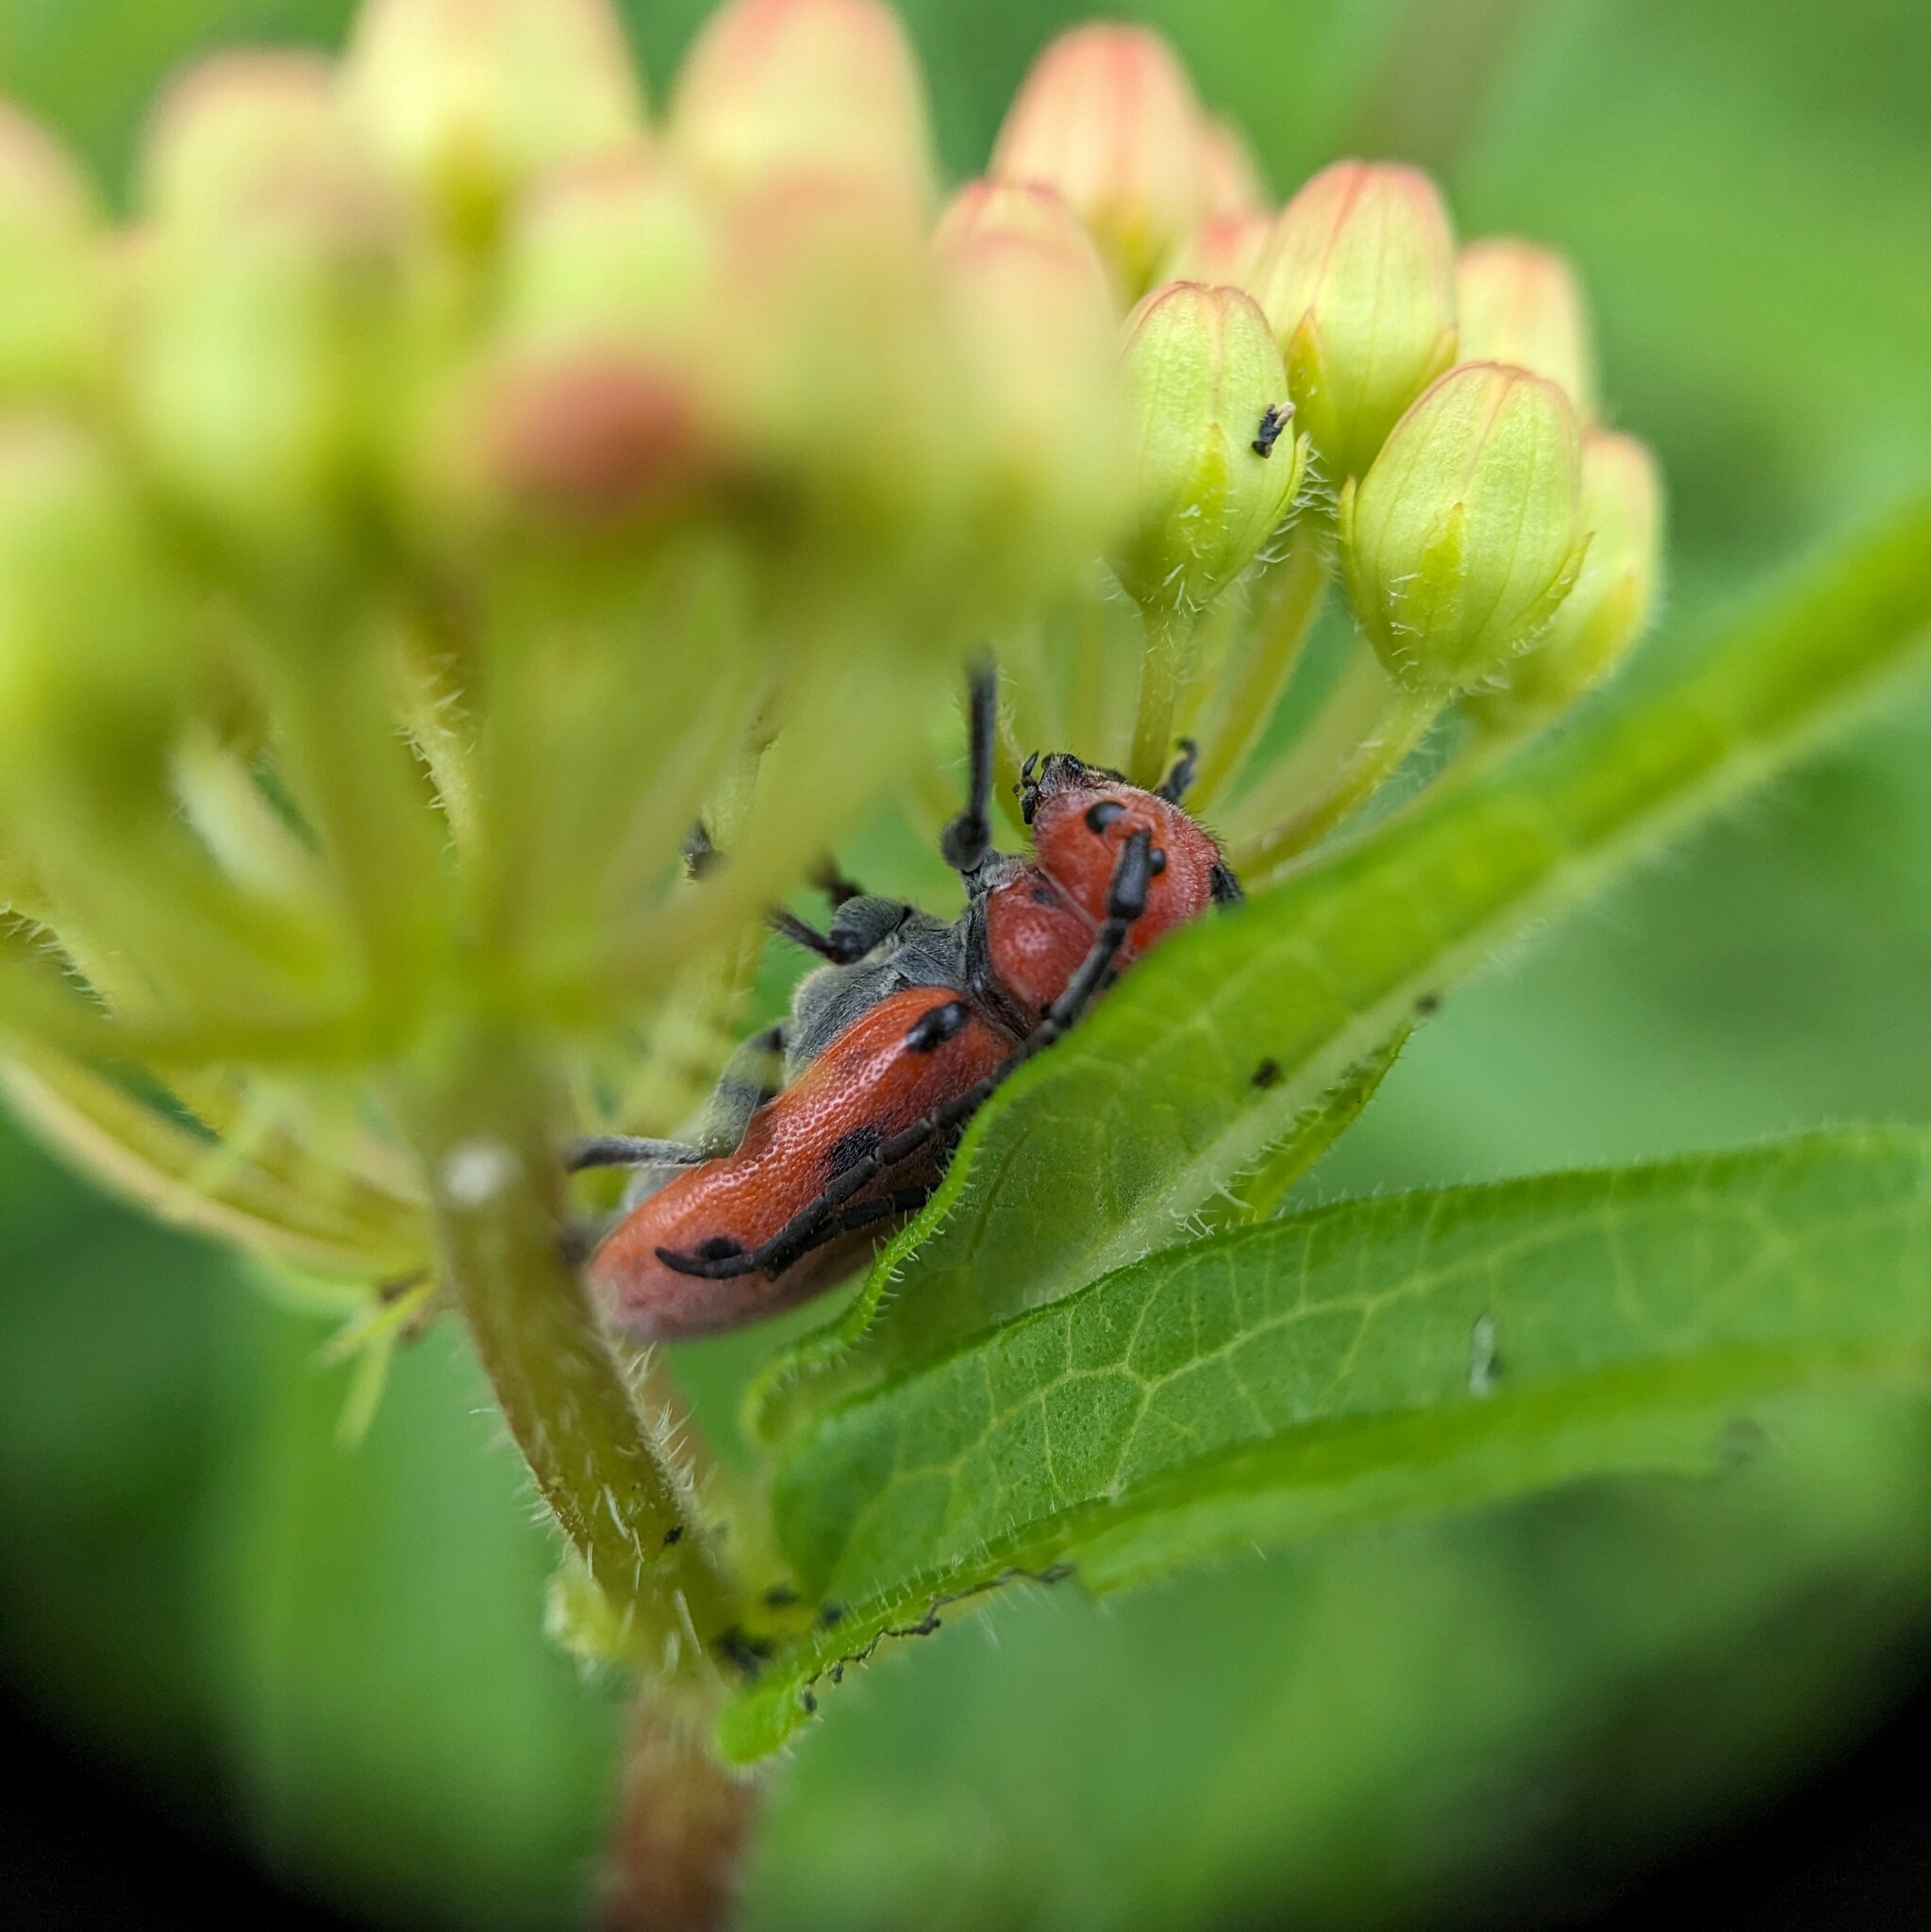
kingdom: Animalia
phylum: Arthropoda
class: Insecta
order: Coleoptera
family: Cerambycidae
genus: Tetraopes
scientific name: Tetraopes tetrophthalmus
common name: Red milkweed beetle
